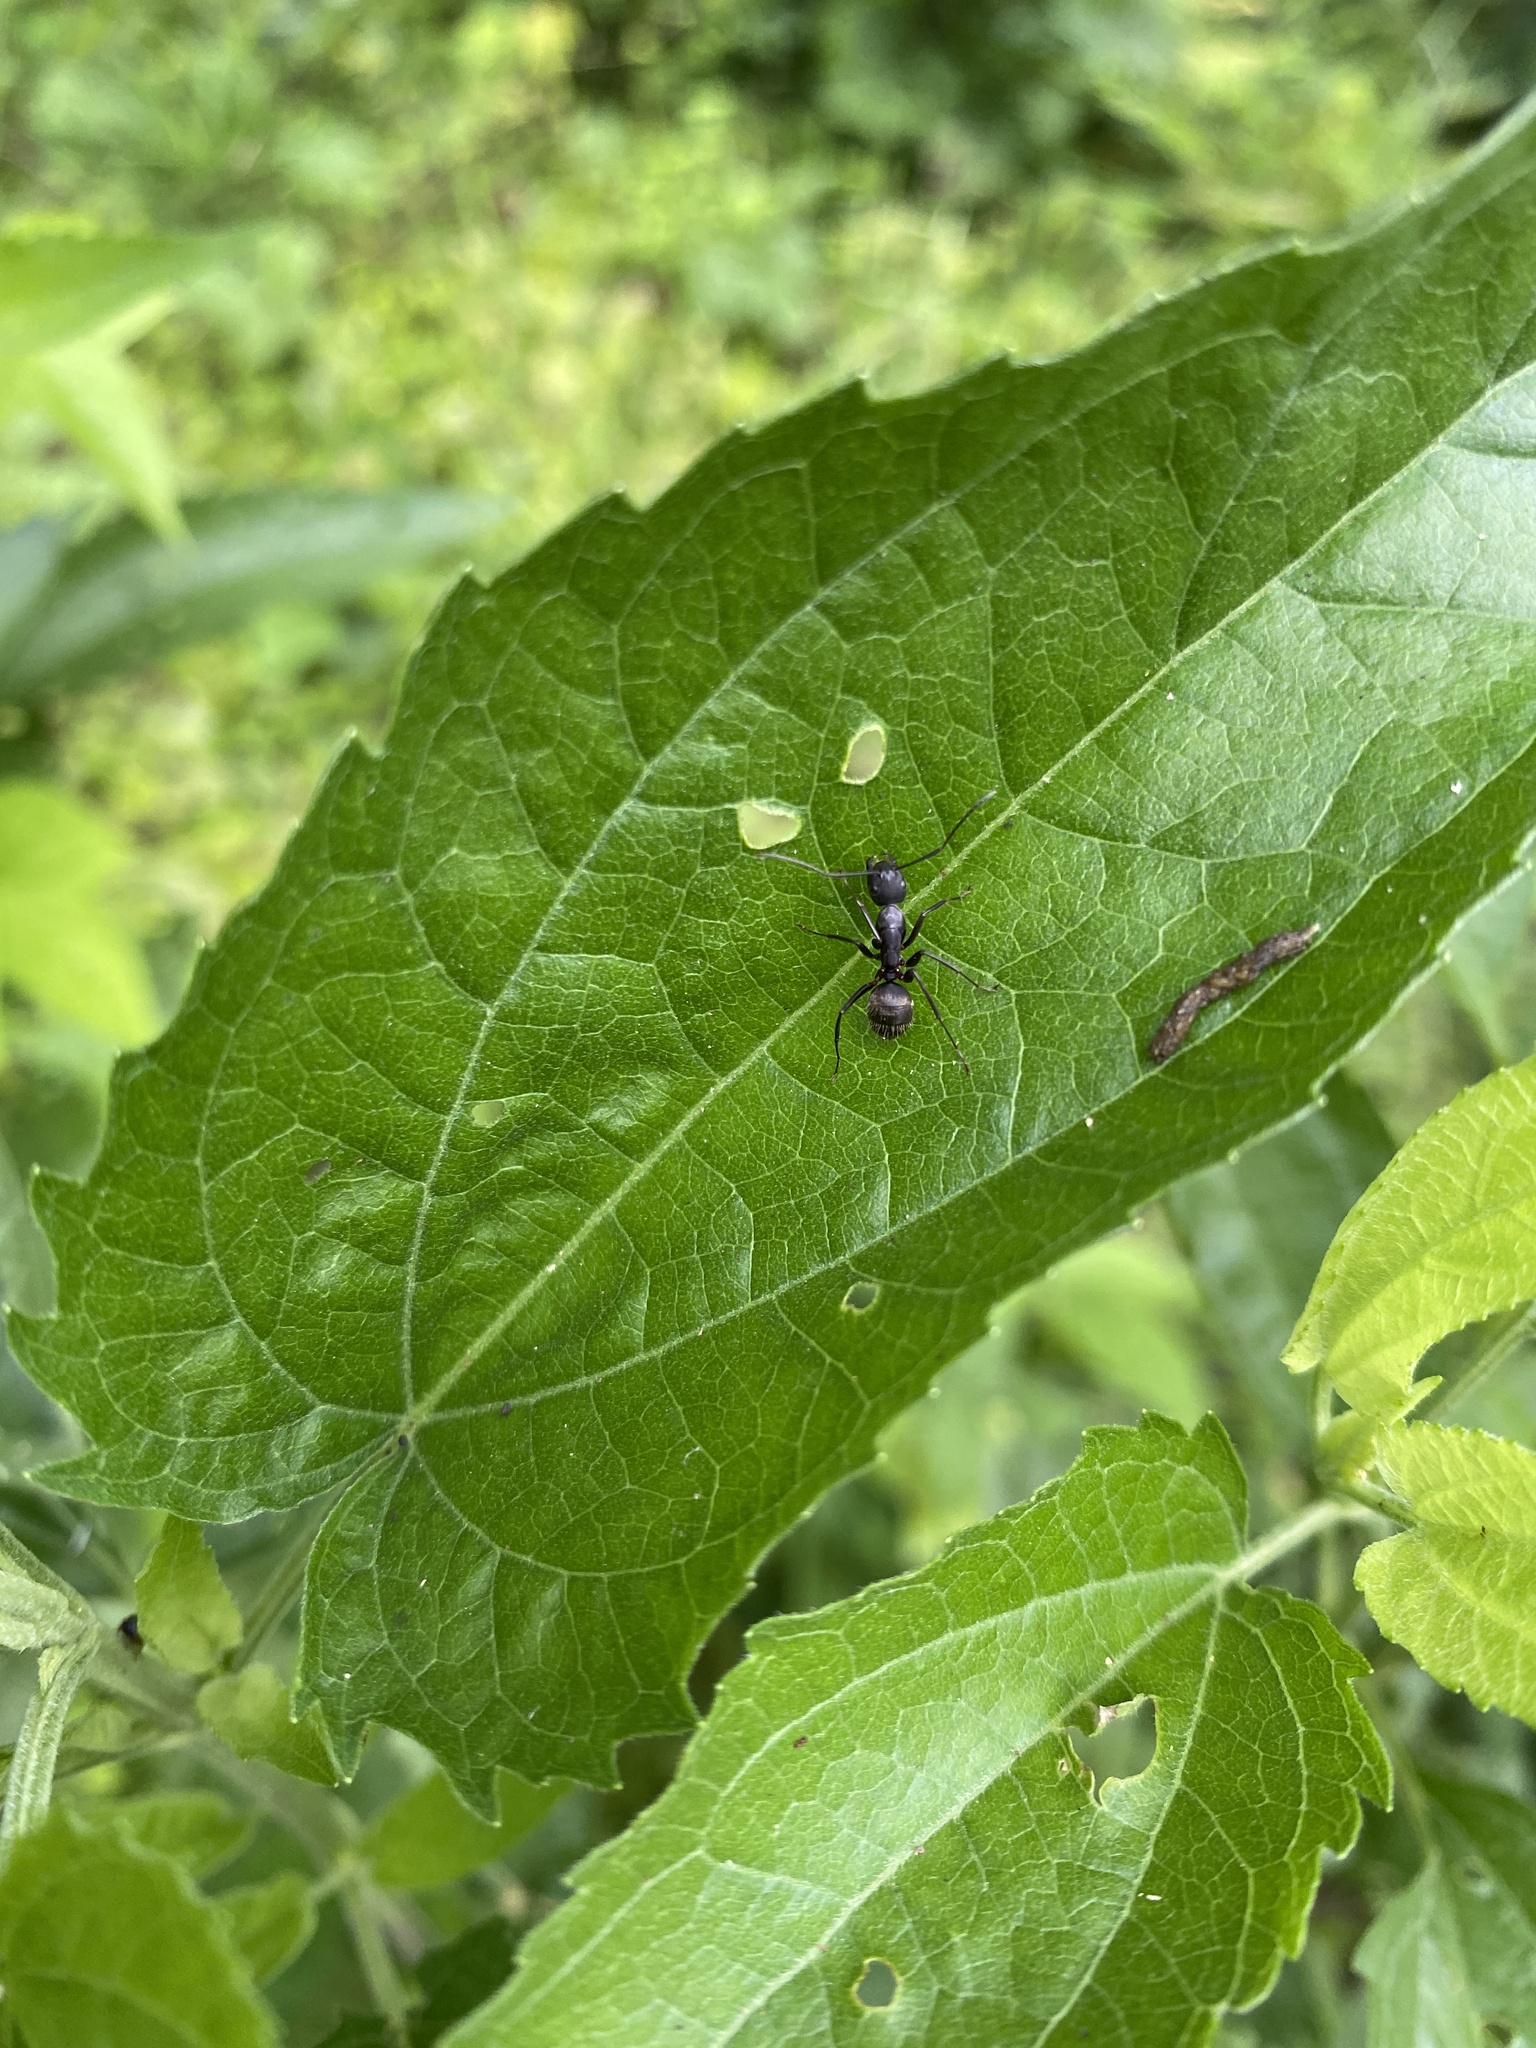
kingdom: Animalia
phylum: Arthropoda
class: Insecta
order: Hymenoptera
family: Formicidae
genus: Camponotus
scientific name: Camponotus pennsylvanicus
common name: Black carpenter ant
